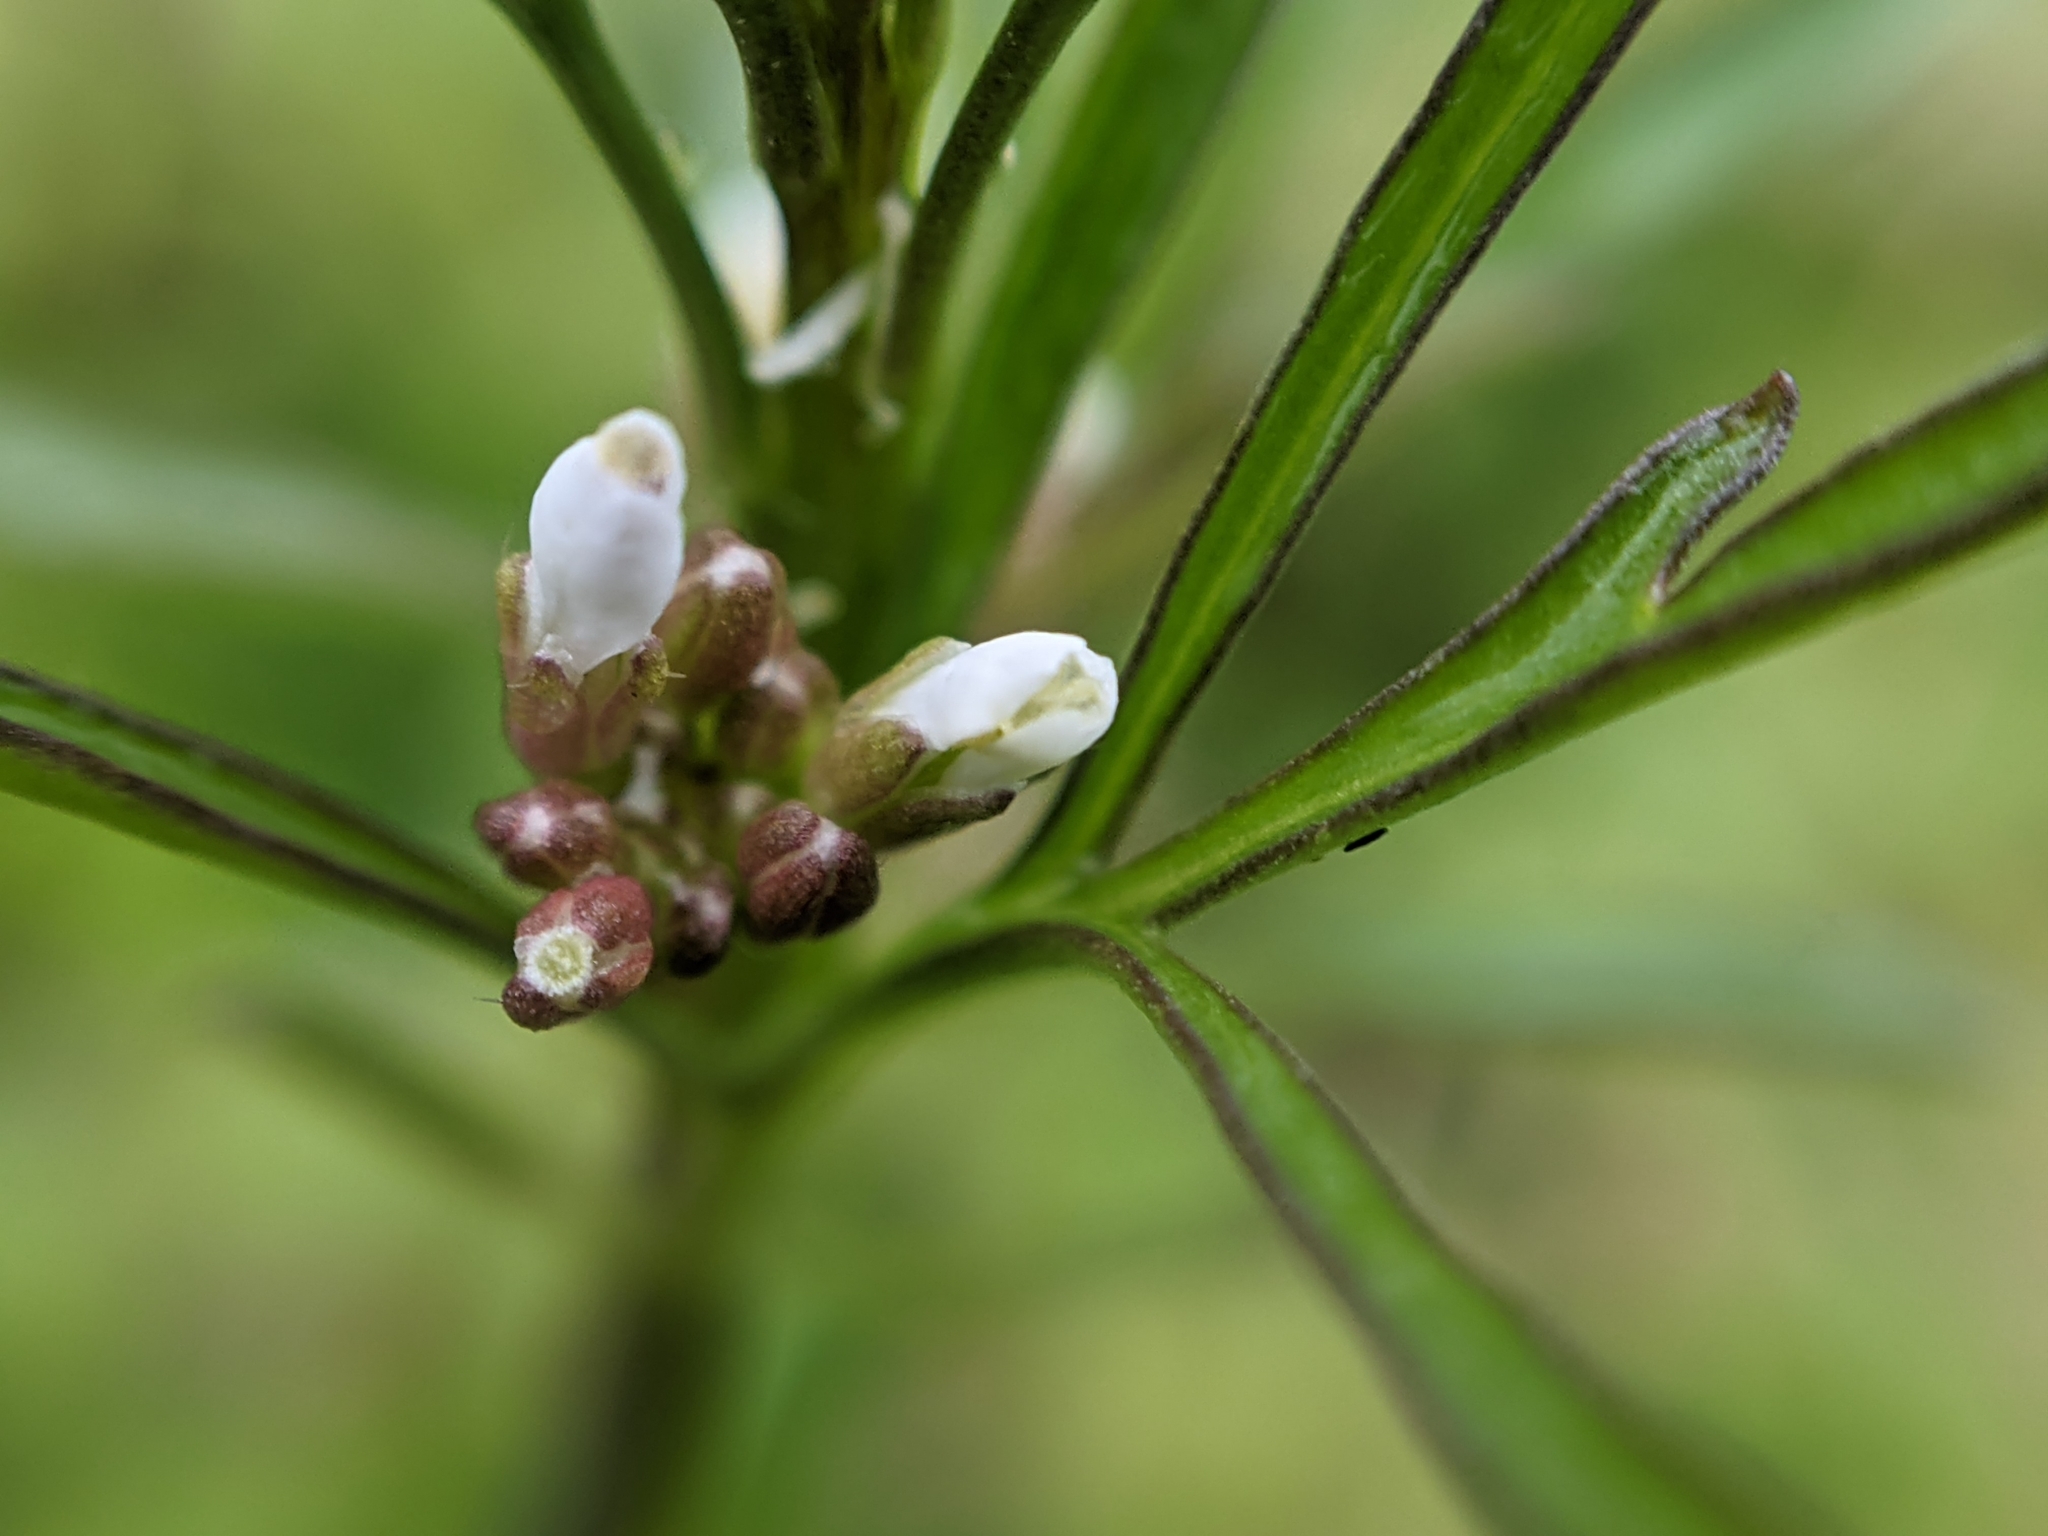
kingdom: Plantae
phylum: Tracheophyta
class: Magnoliopsida
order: Brassicales
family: Brassicaceae
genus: Cardamine
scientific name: Cardamine hirsuta
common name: Hairy bittercress
